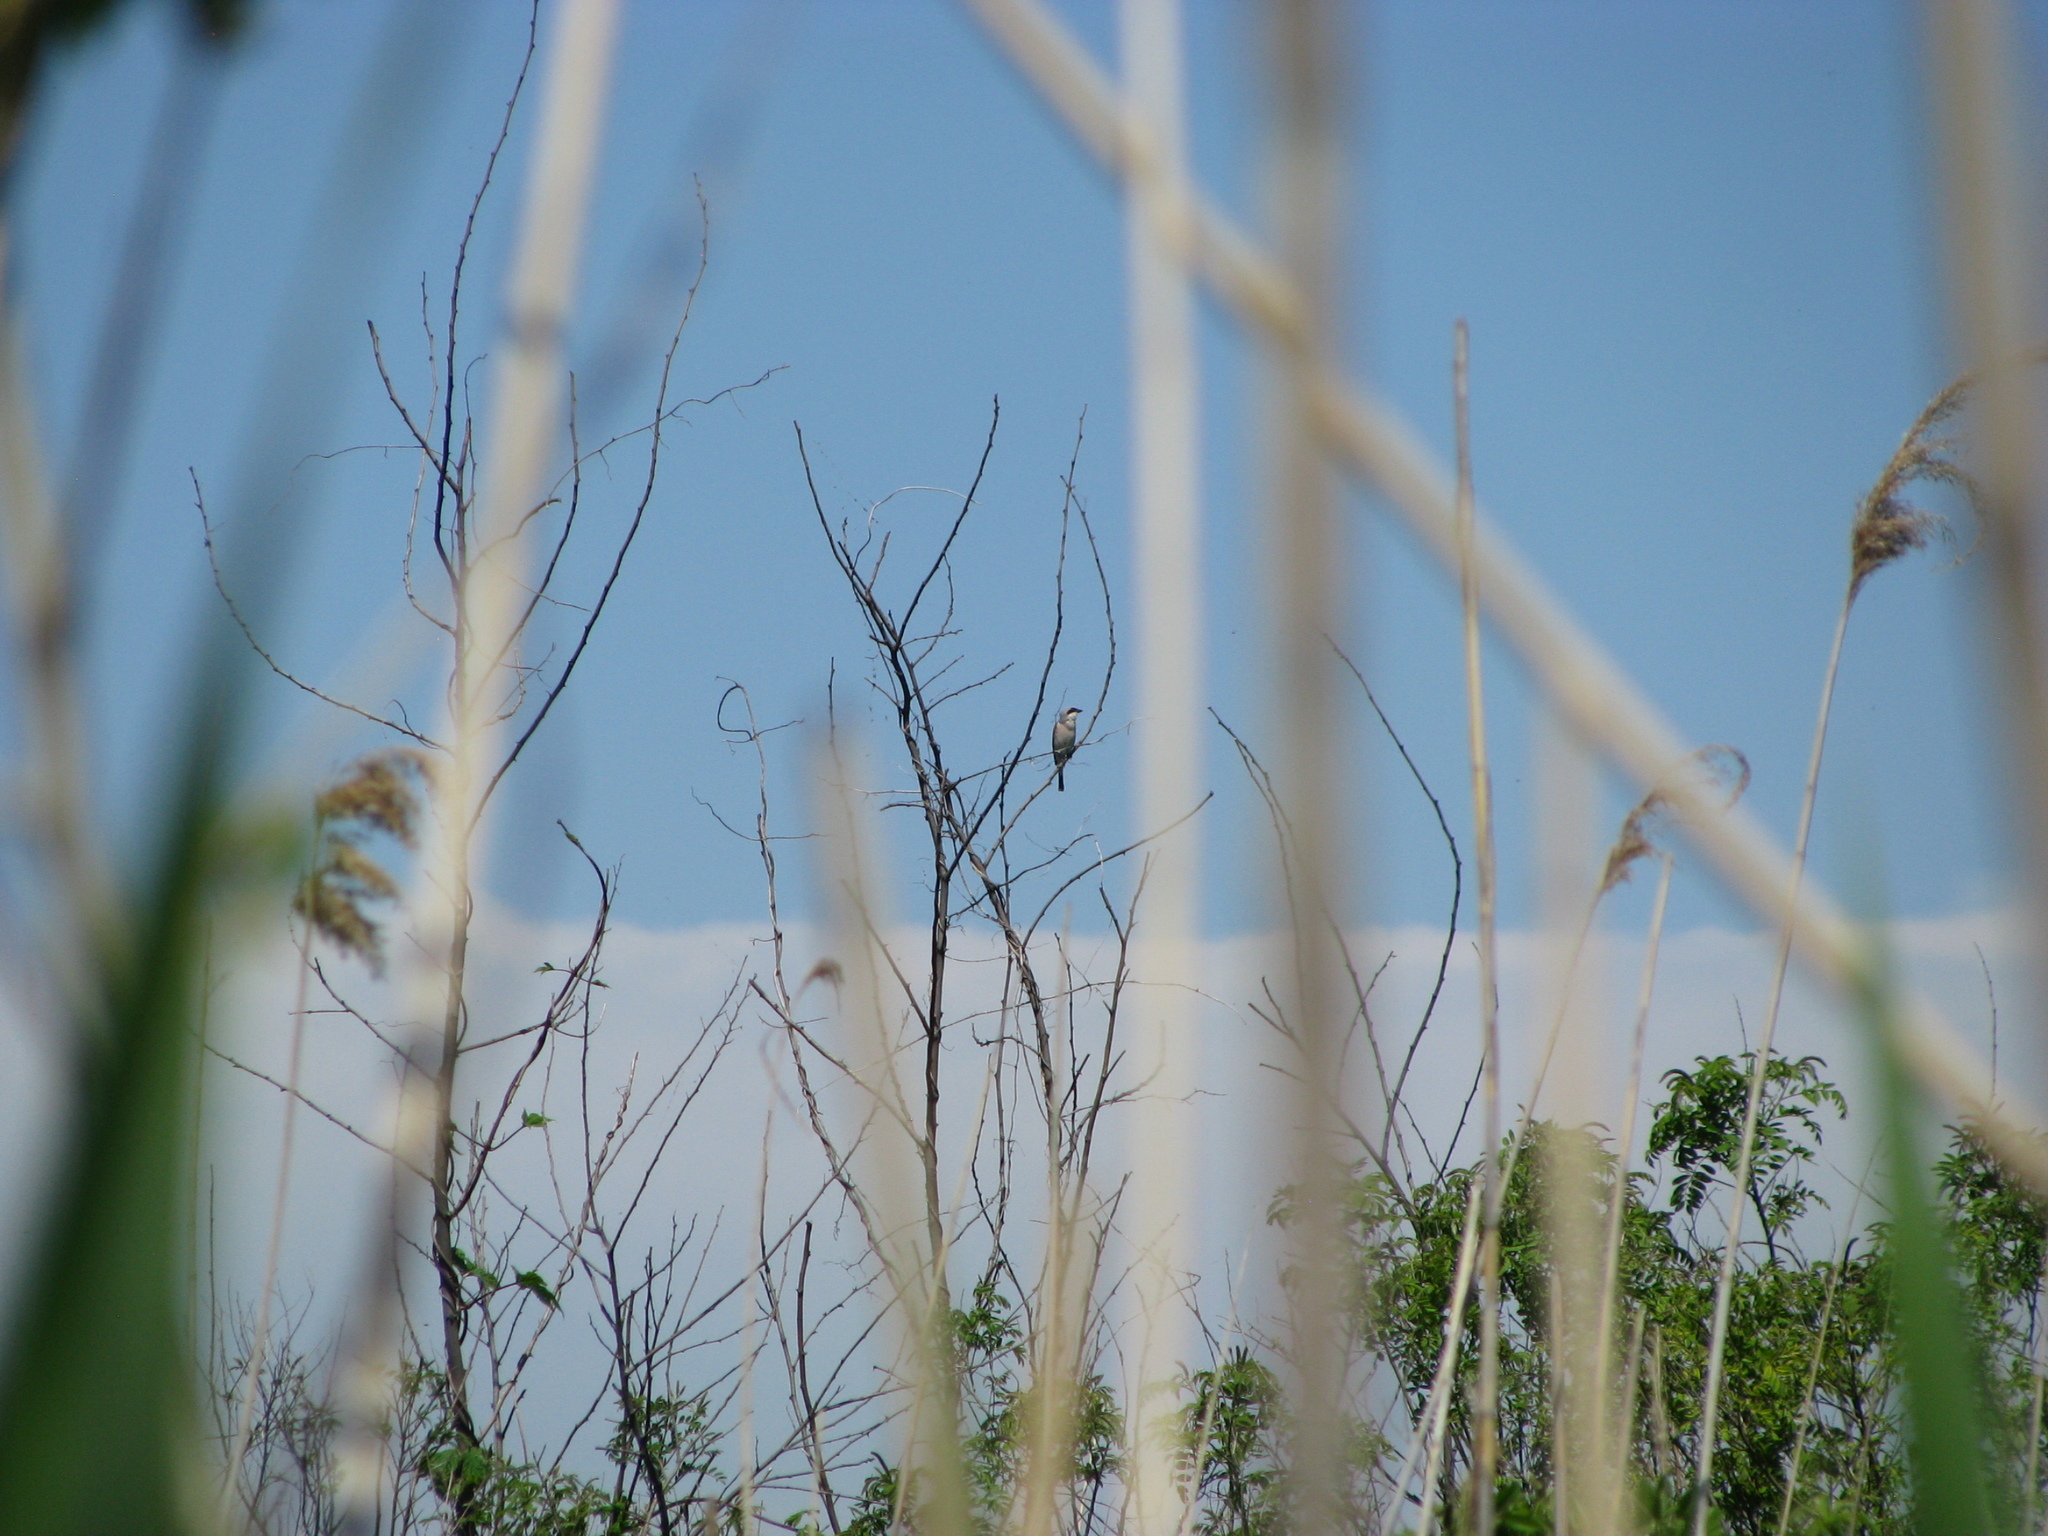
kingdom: Animalia
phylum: Chordata
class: Aves
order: Passeriformes
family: Laniidae
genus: Lanius
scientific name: Lanius minor
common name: Lesser grey shrike
